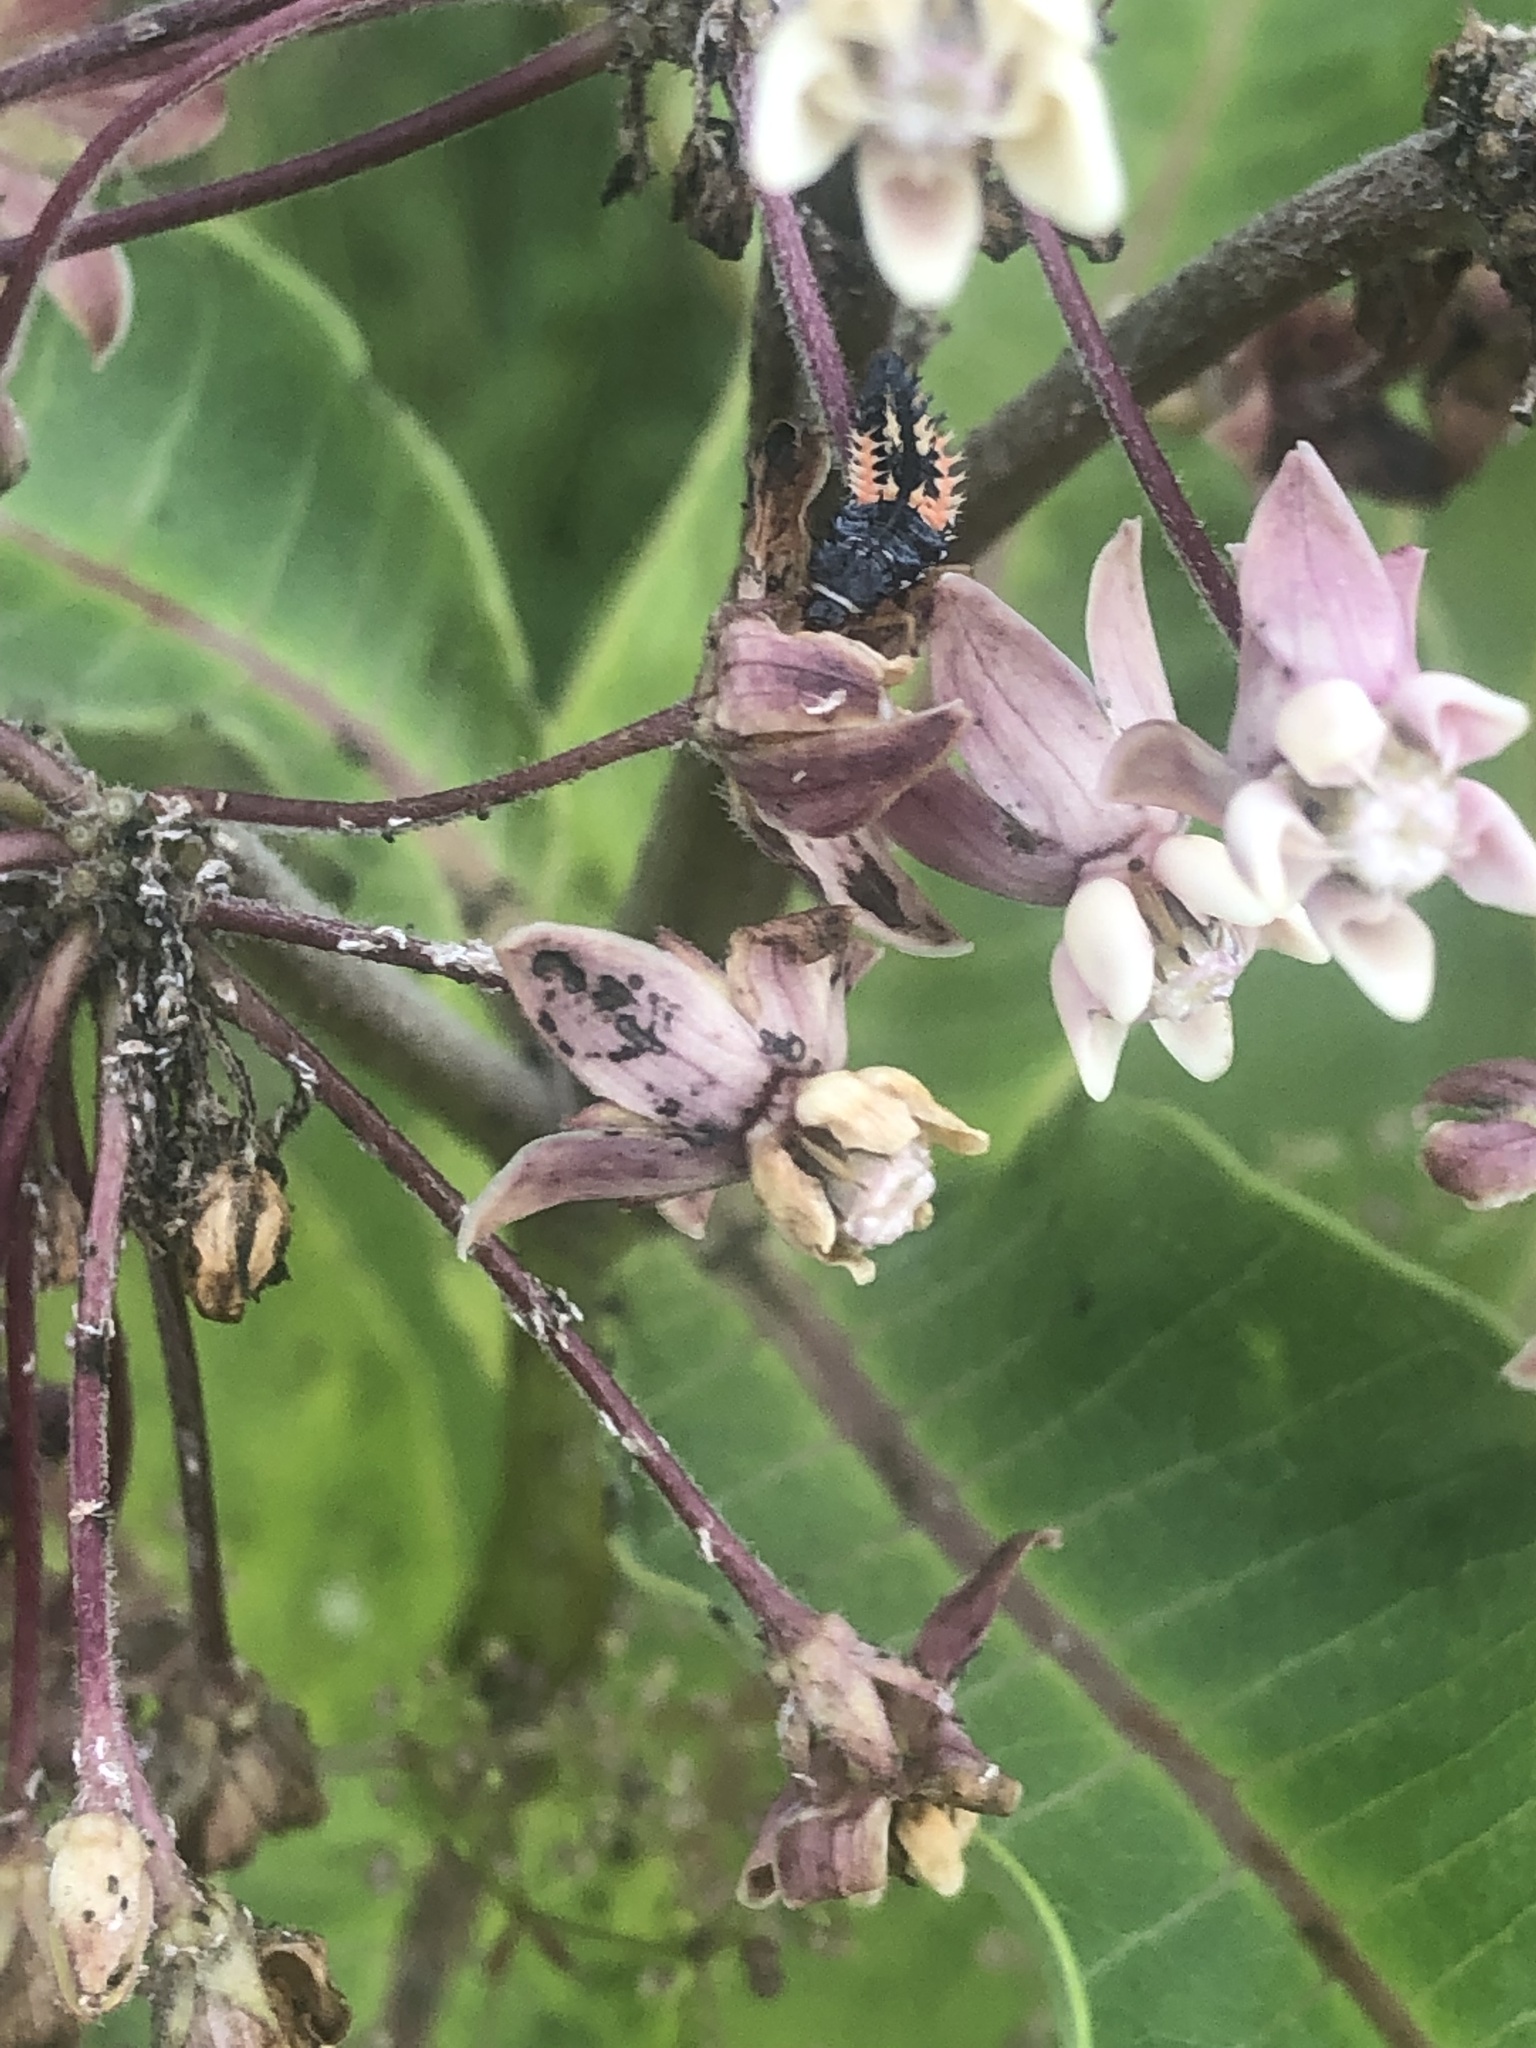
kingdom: Animalia
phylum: Arthropoda
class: Insecta
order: Coleoptera
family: Coccinellidae
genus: Harmonia
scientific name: Harmonia axyridis
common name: Harlequin ladybird
